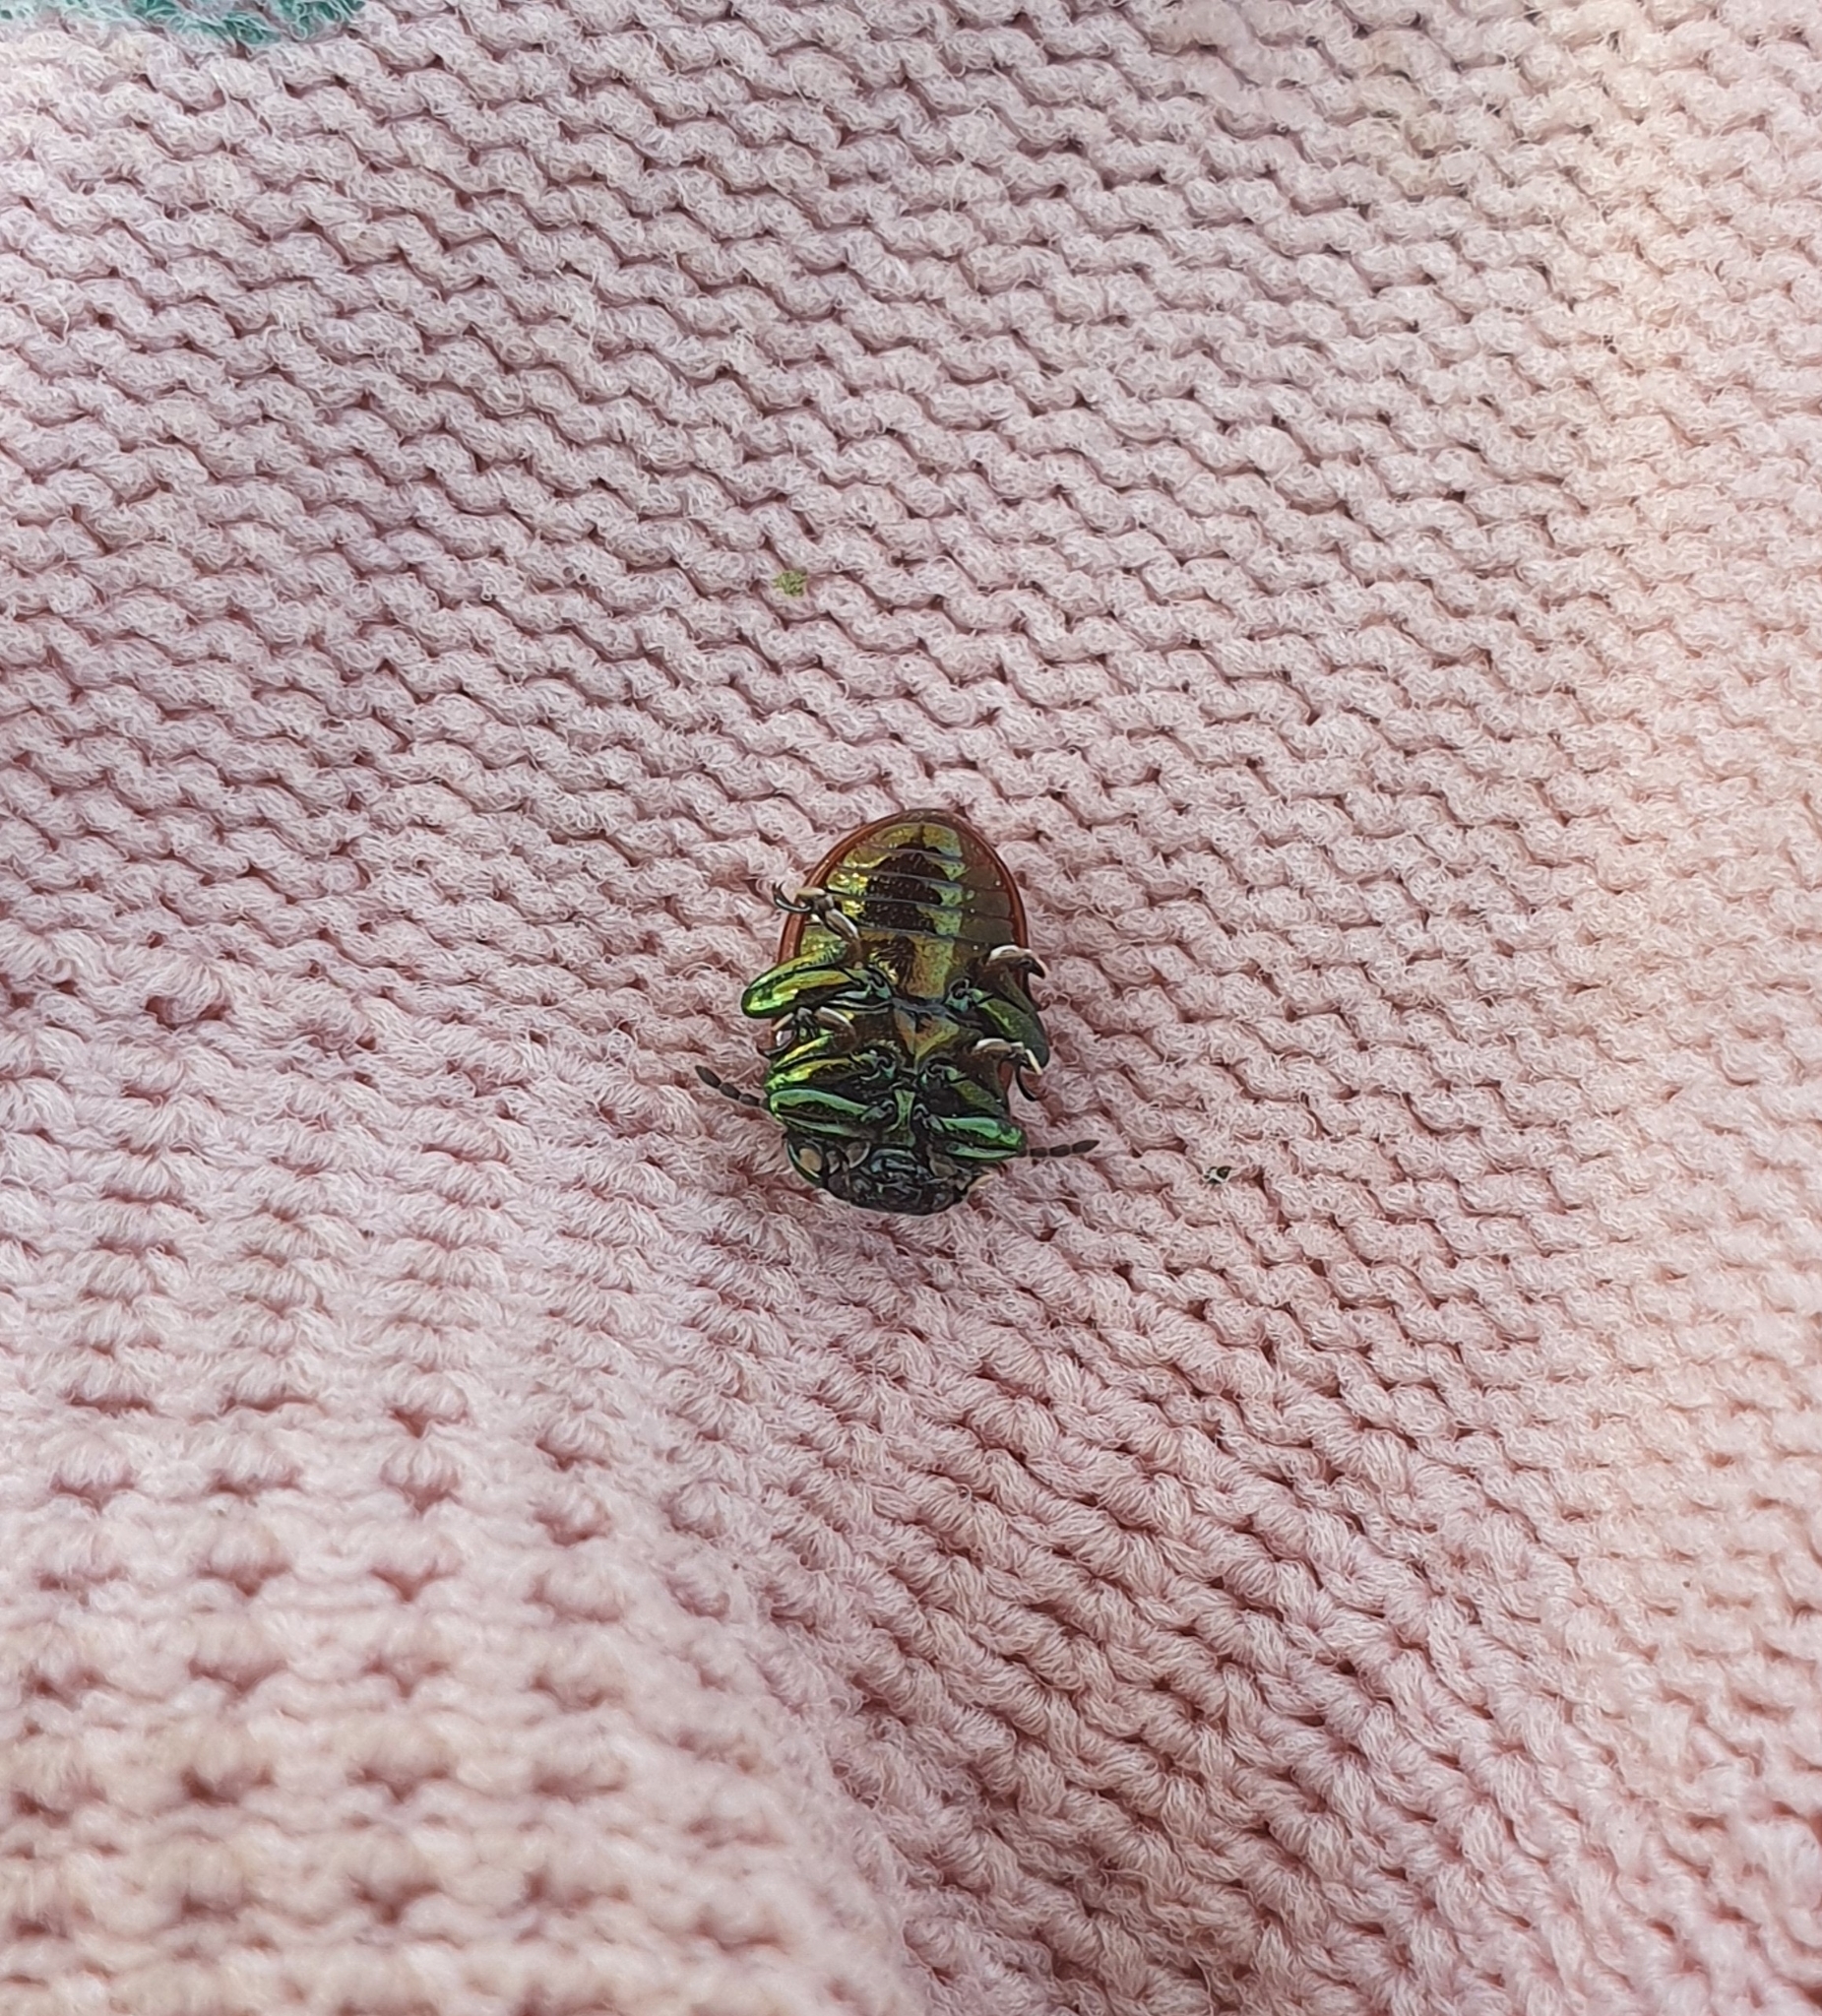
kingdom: Animalia
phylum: Arthropoda
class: Insecta
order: Coleoptera
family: Chrysomelidae
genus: Chrysomela
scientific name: Chrysomela polita
